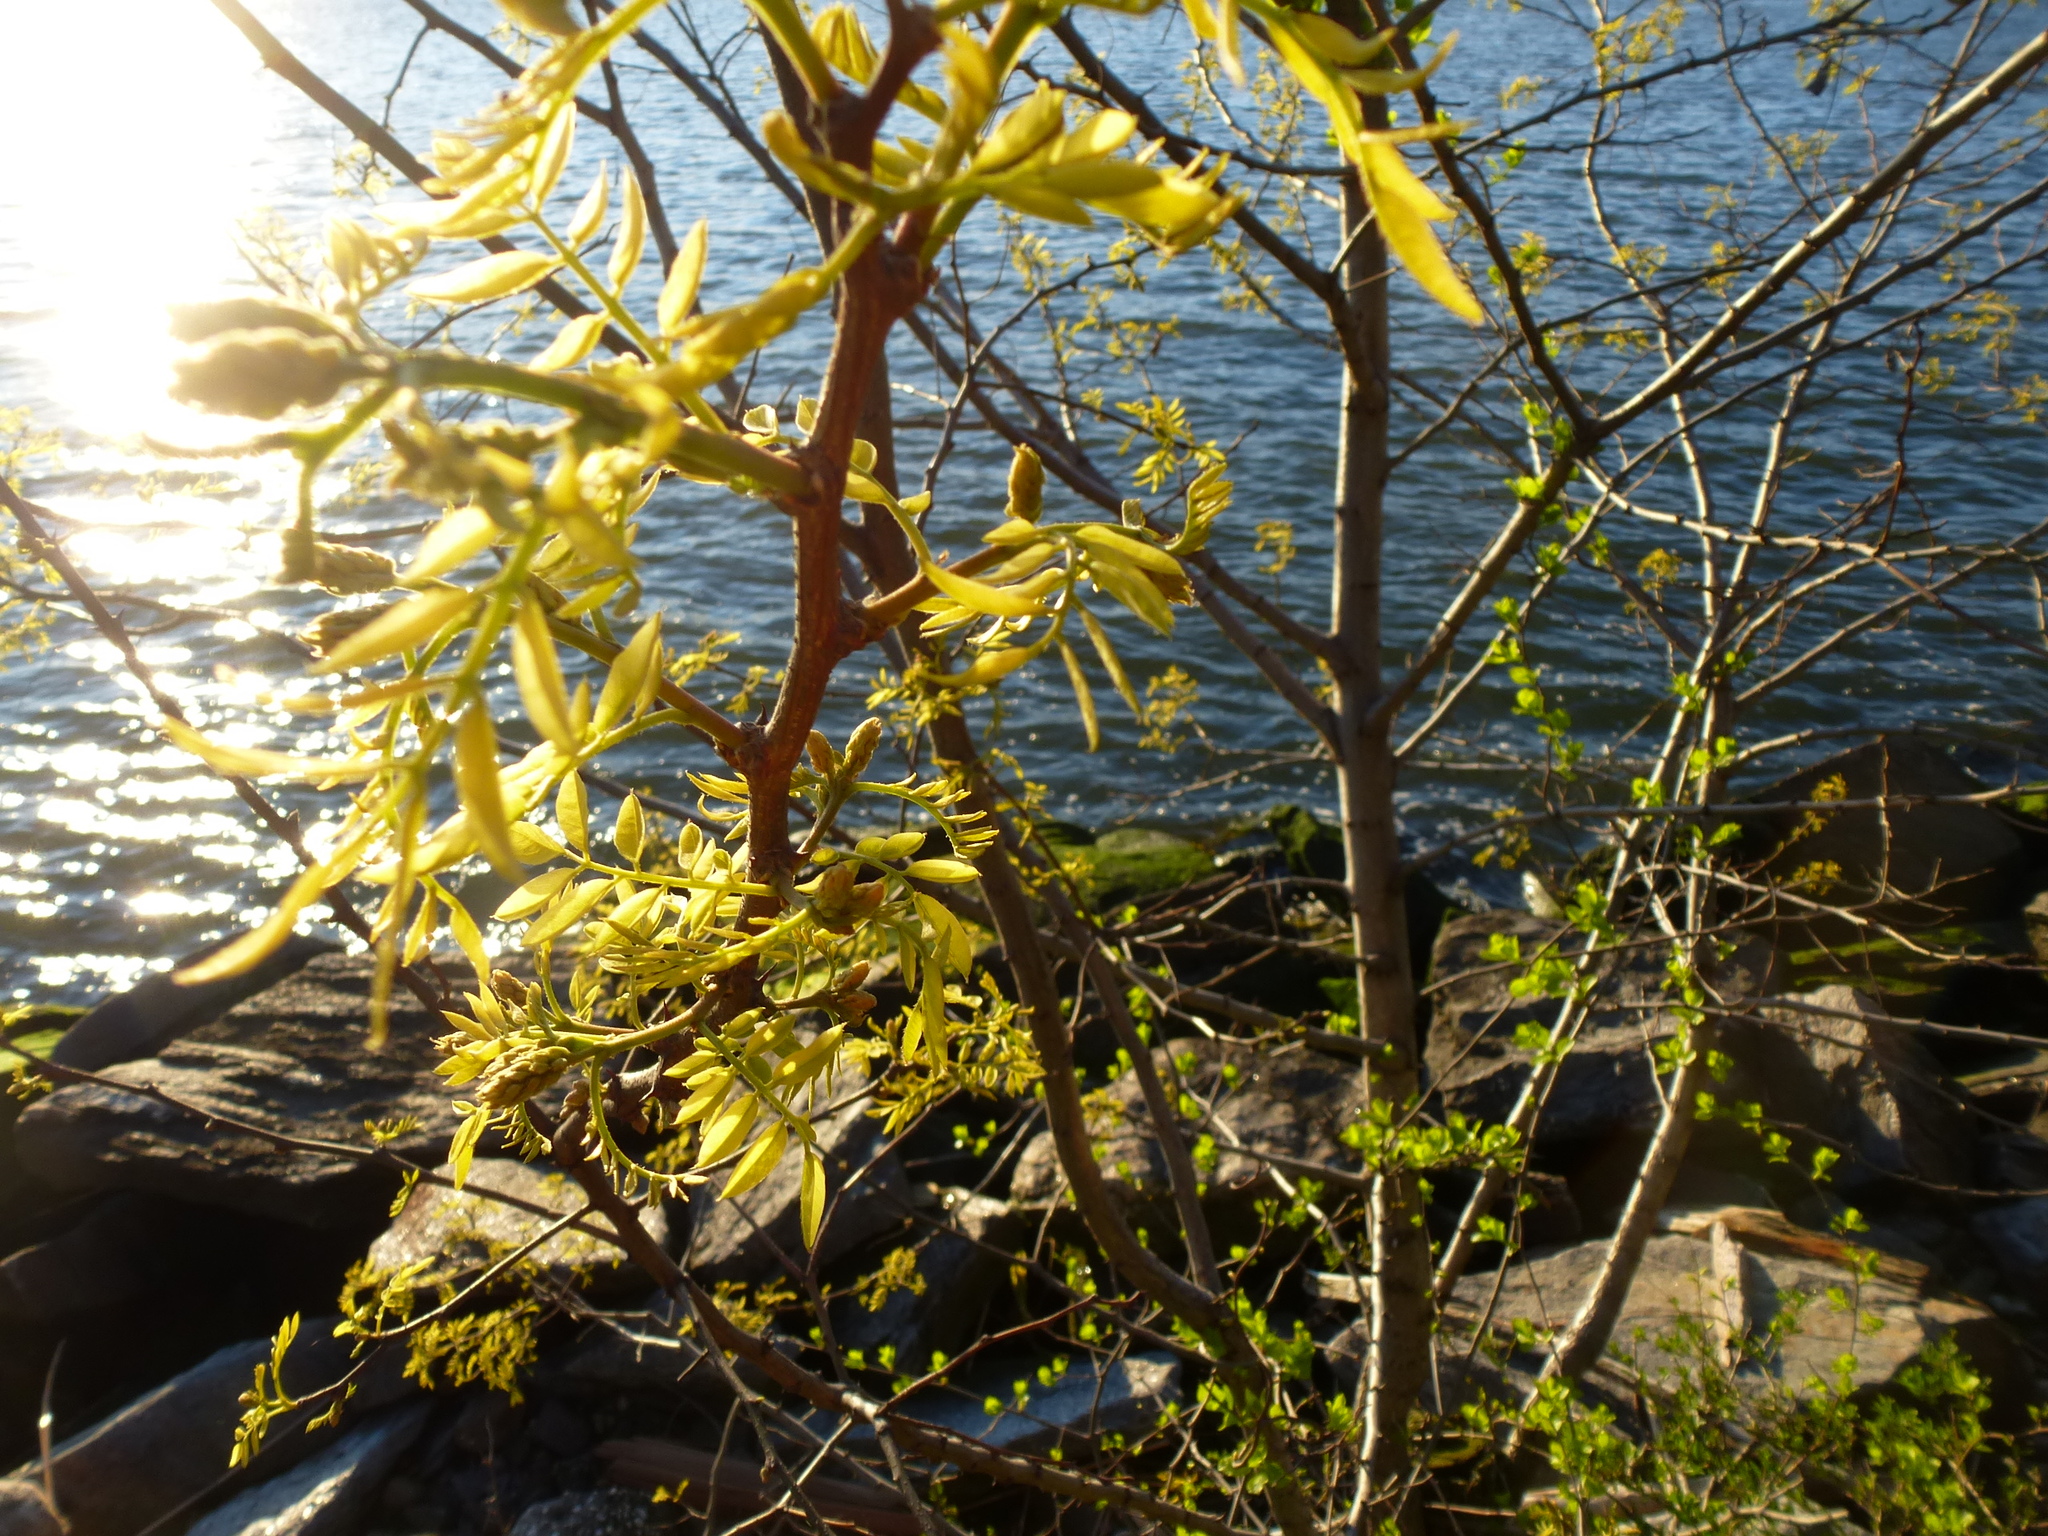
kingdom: Plantae
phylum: Tracheophyta
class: Magnoliopsida
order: Fabales
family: Fabaceae
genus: Gleditsia
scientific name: Gleditsia triacanthos
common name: Common honeylocust
